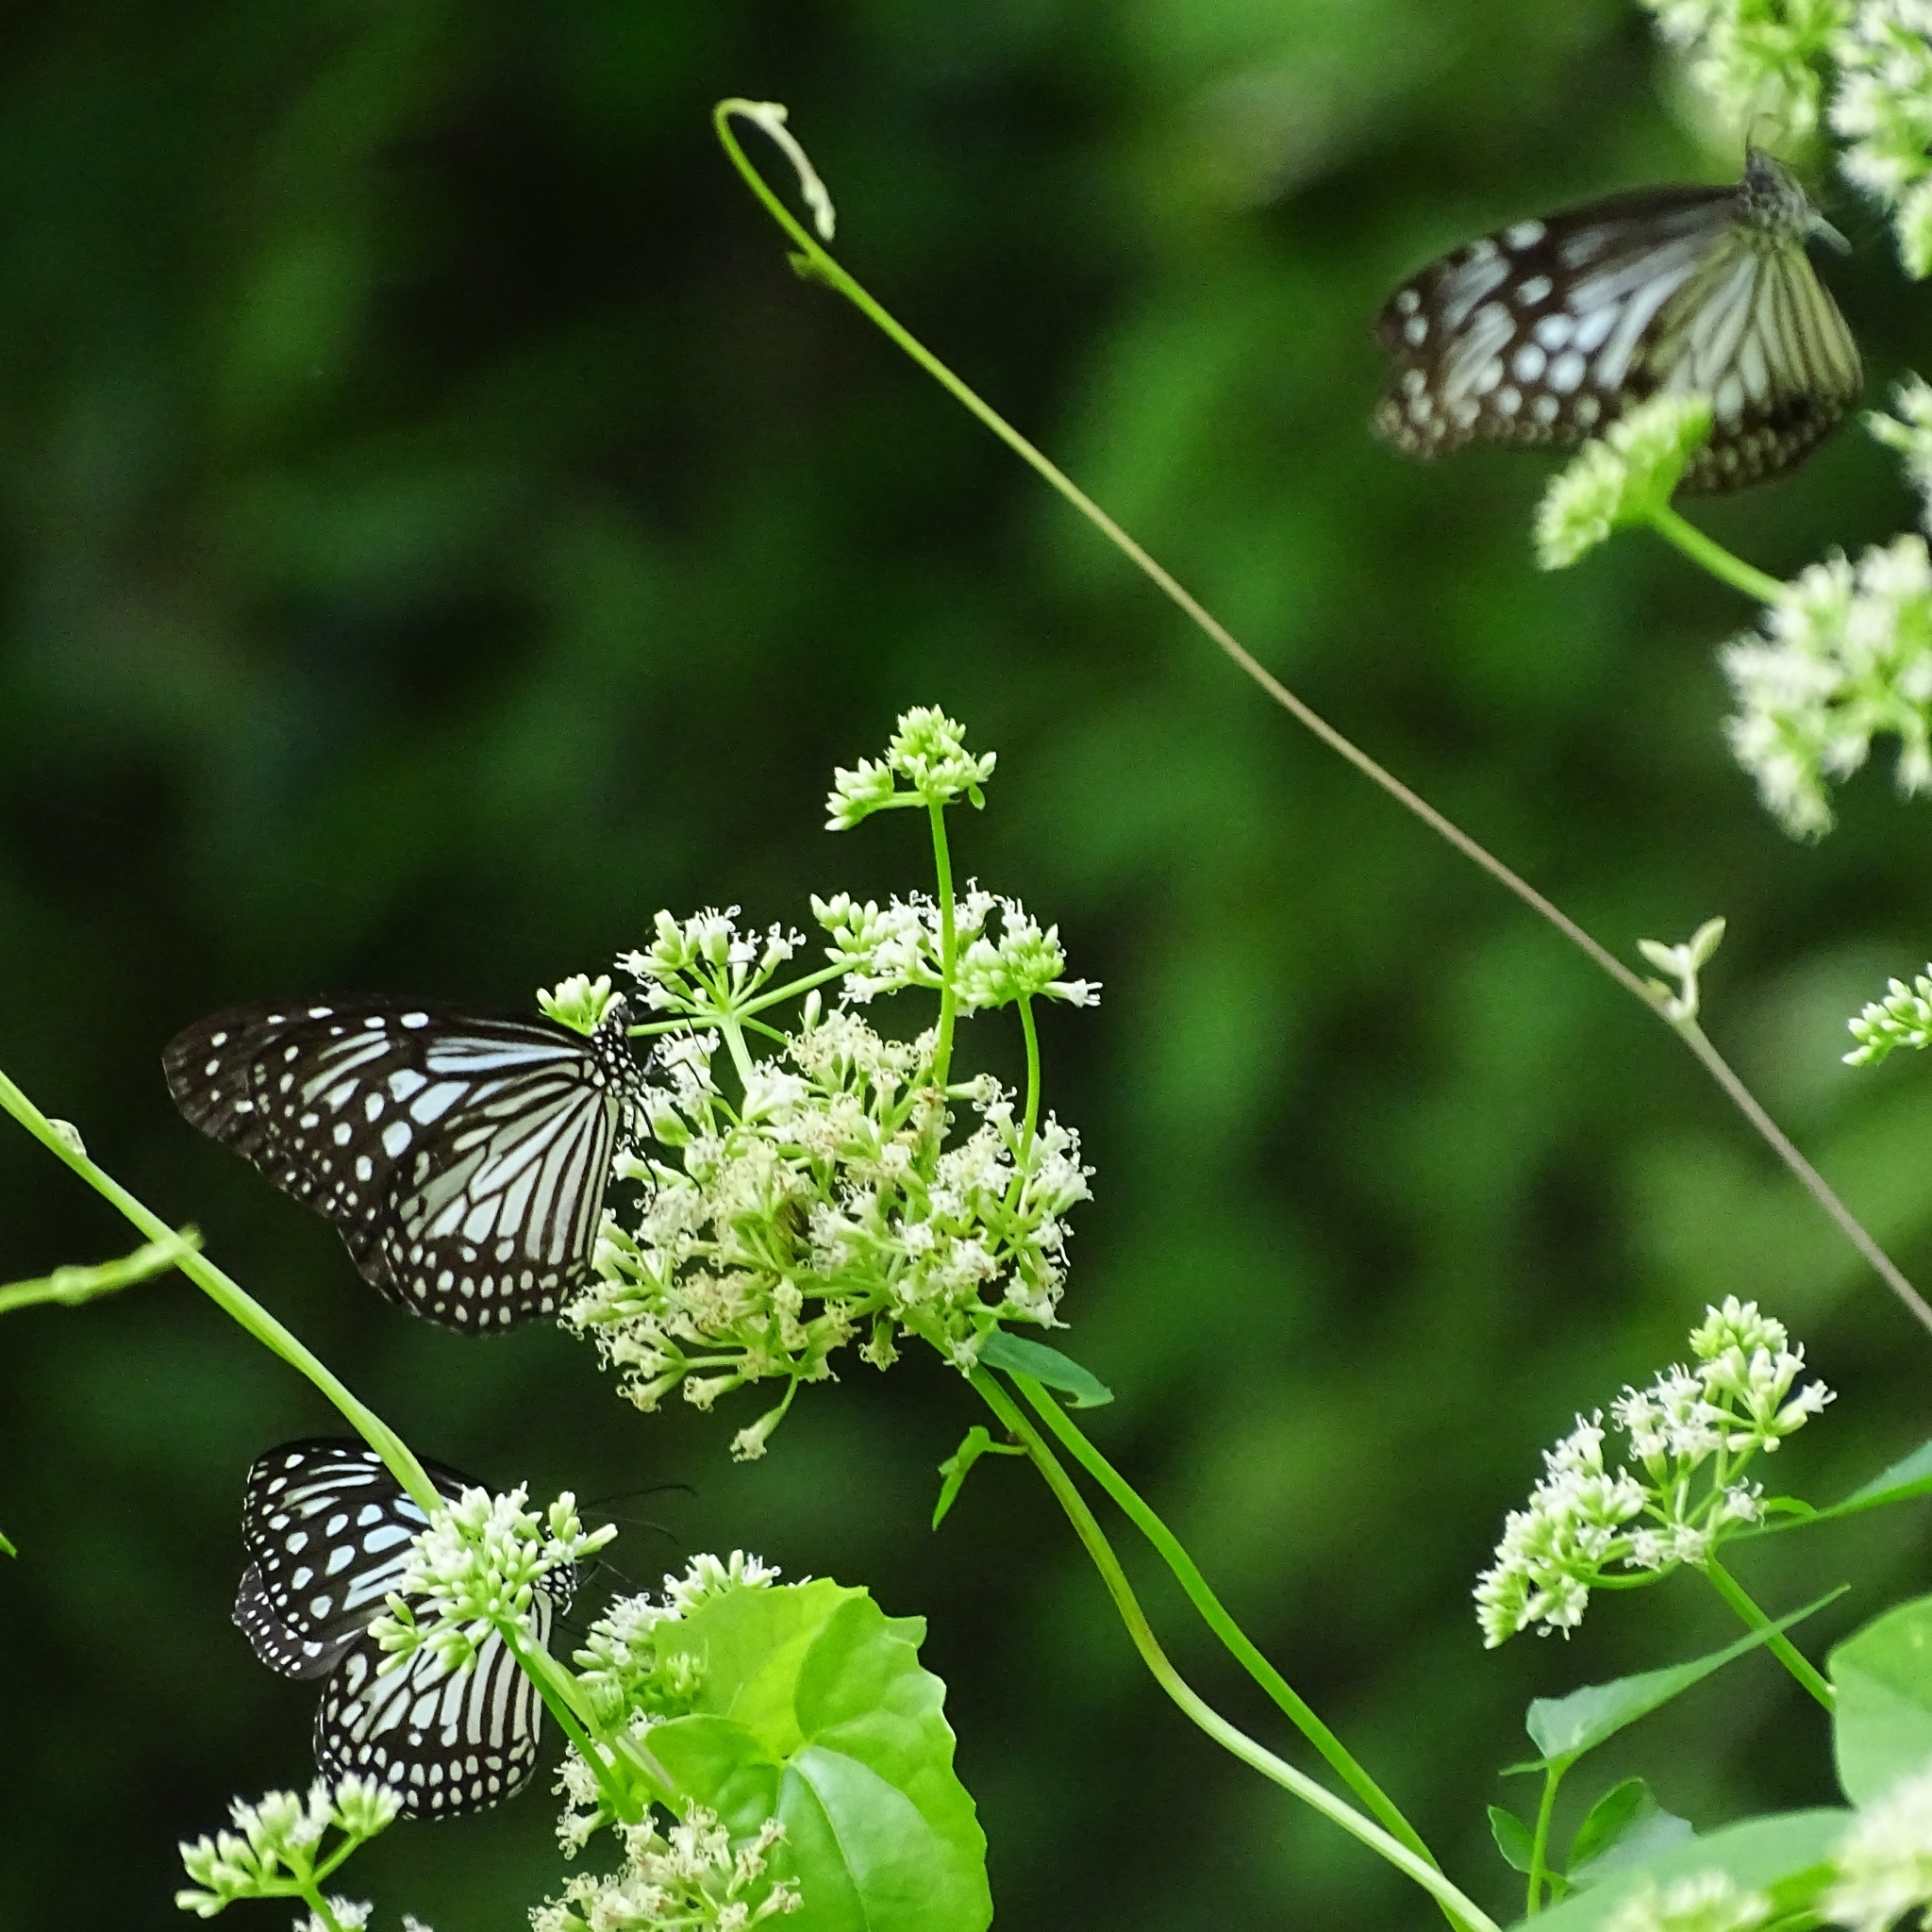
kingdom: Animalia
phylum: Arthropoda
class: Insecta
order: Lepidoptera
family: Nymphalidae
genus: Parantica
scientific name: Parantica aglea
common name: Glassy tiger
